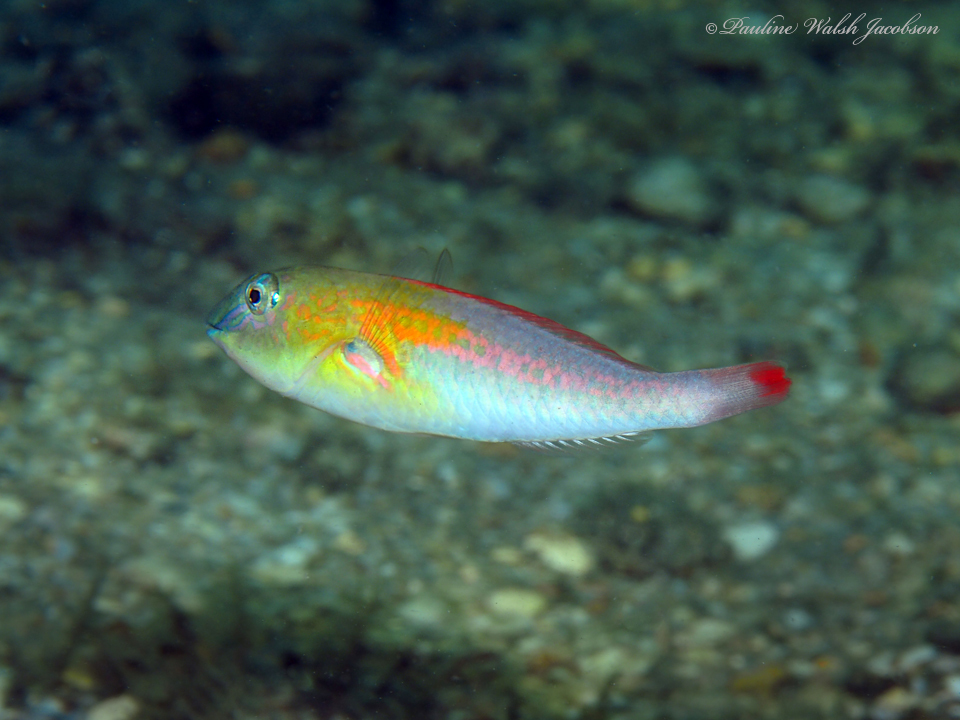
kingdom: Animalia
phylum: Chordata
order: Perciformes
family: Scaridae
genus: Cryptotomus
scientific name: Cryptotomus roseus
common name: Bluelip parrotfish
